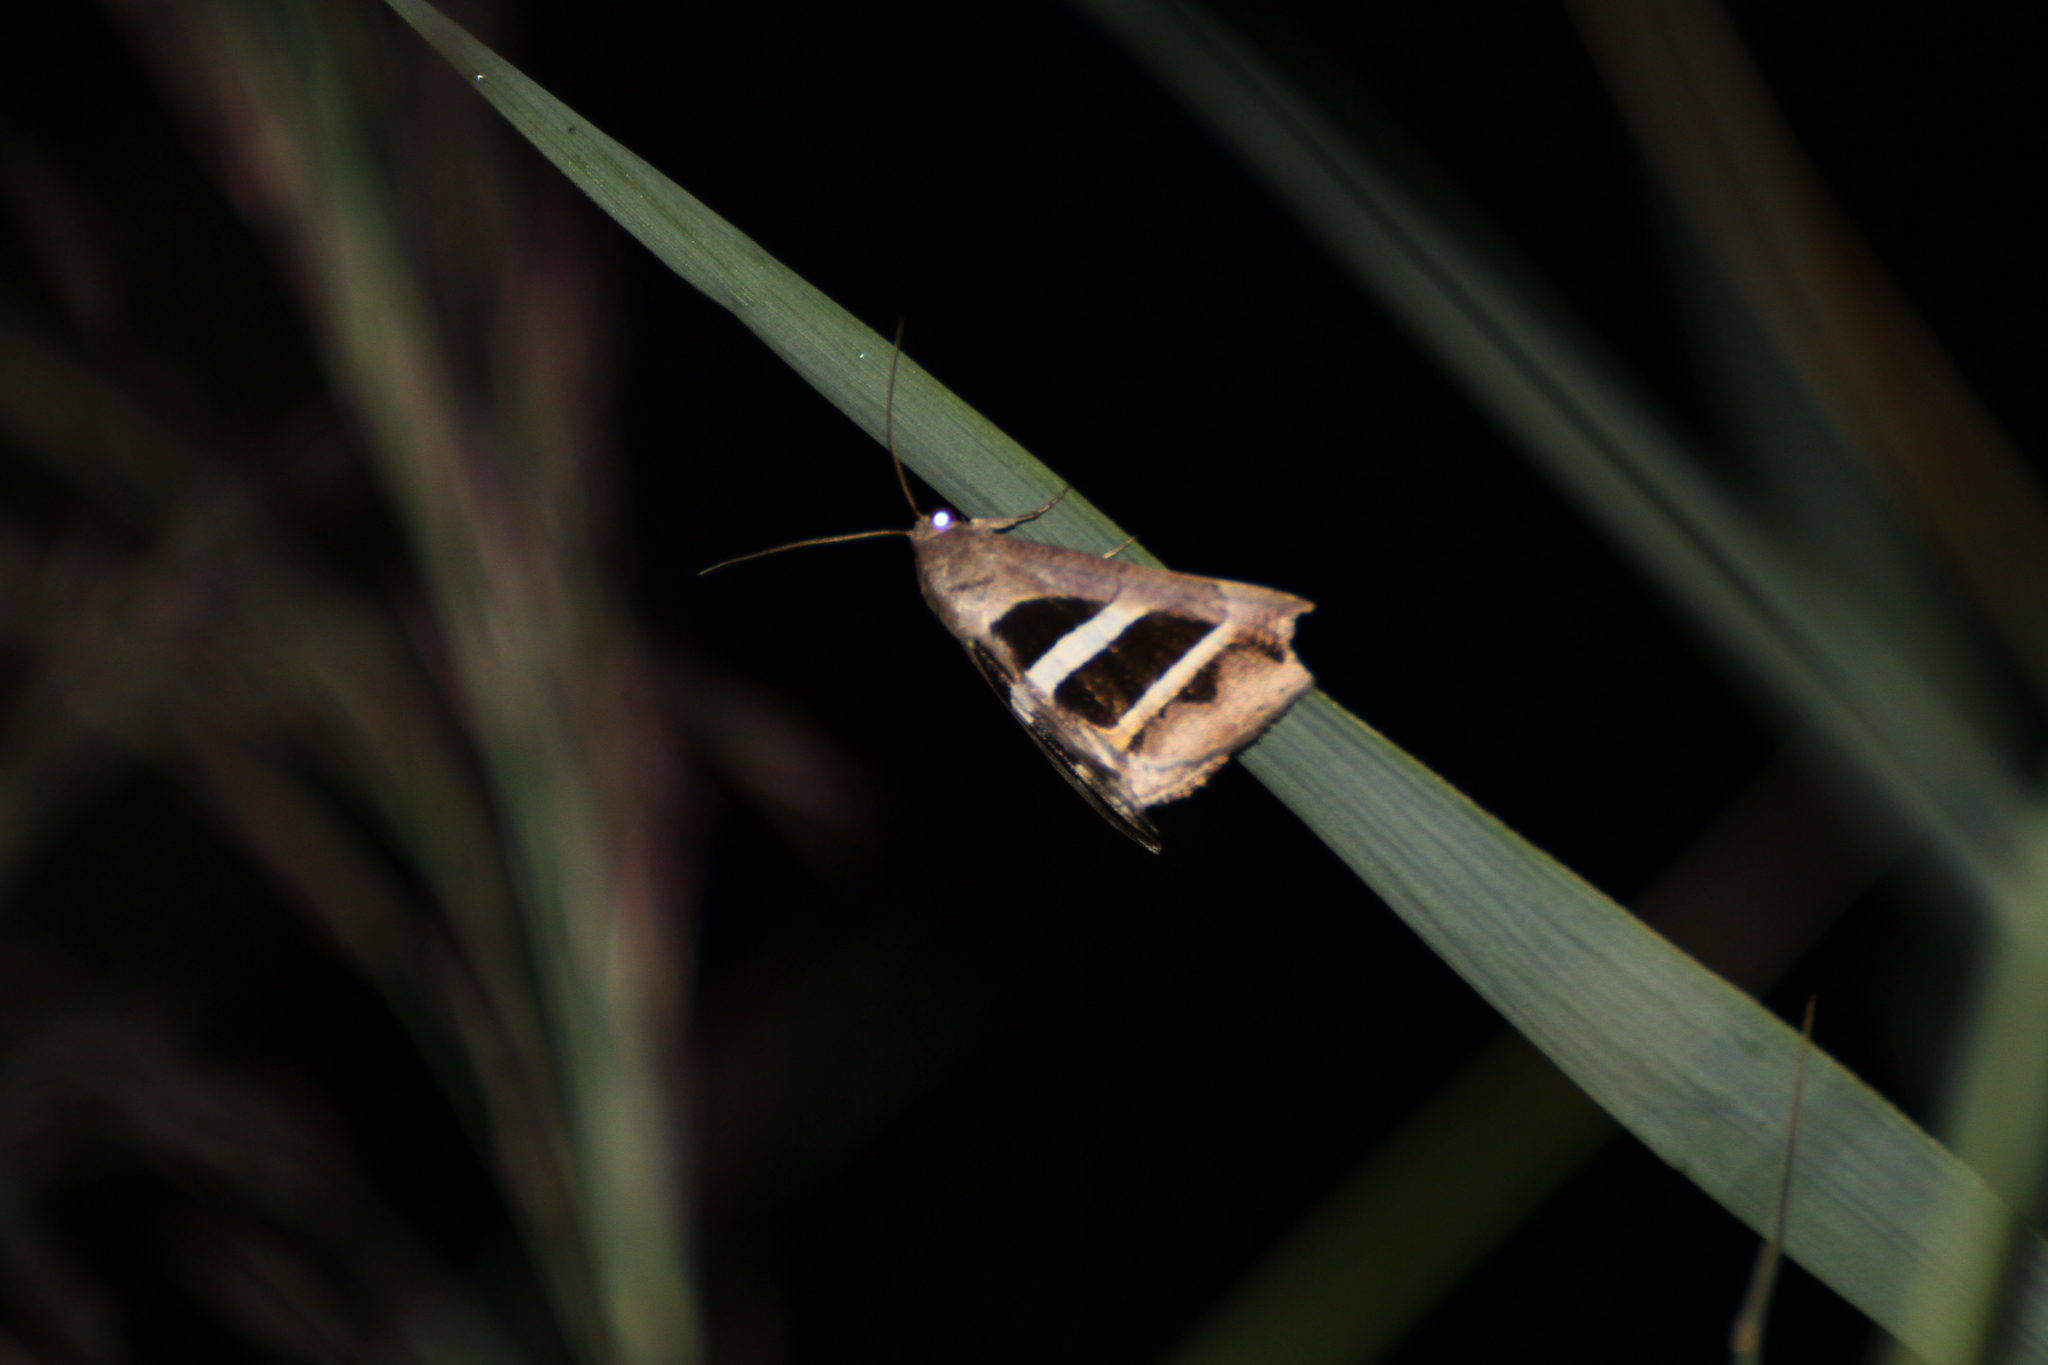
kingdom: Animalia
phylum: Arthropoda
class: Insecta
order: Lepidoptera
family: Erebidae
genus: Grammodes
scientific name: Grammodes bifasciata
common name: Parallel lines
